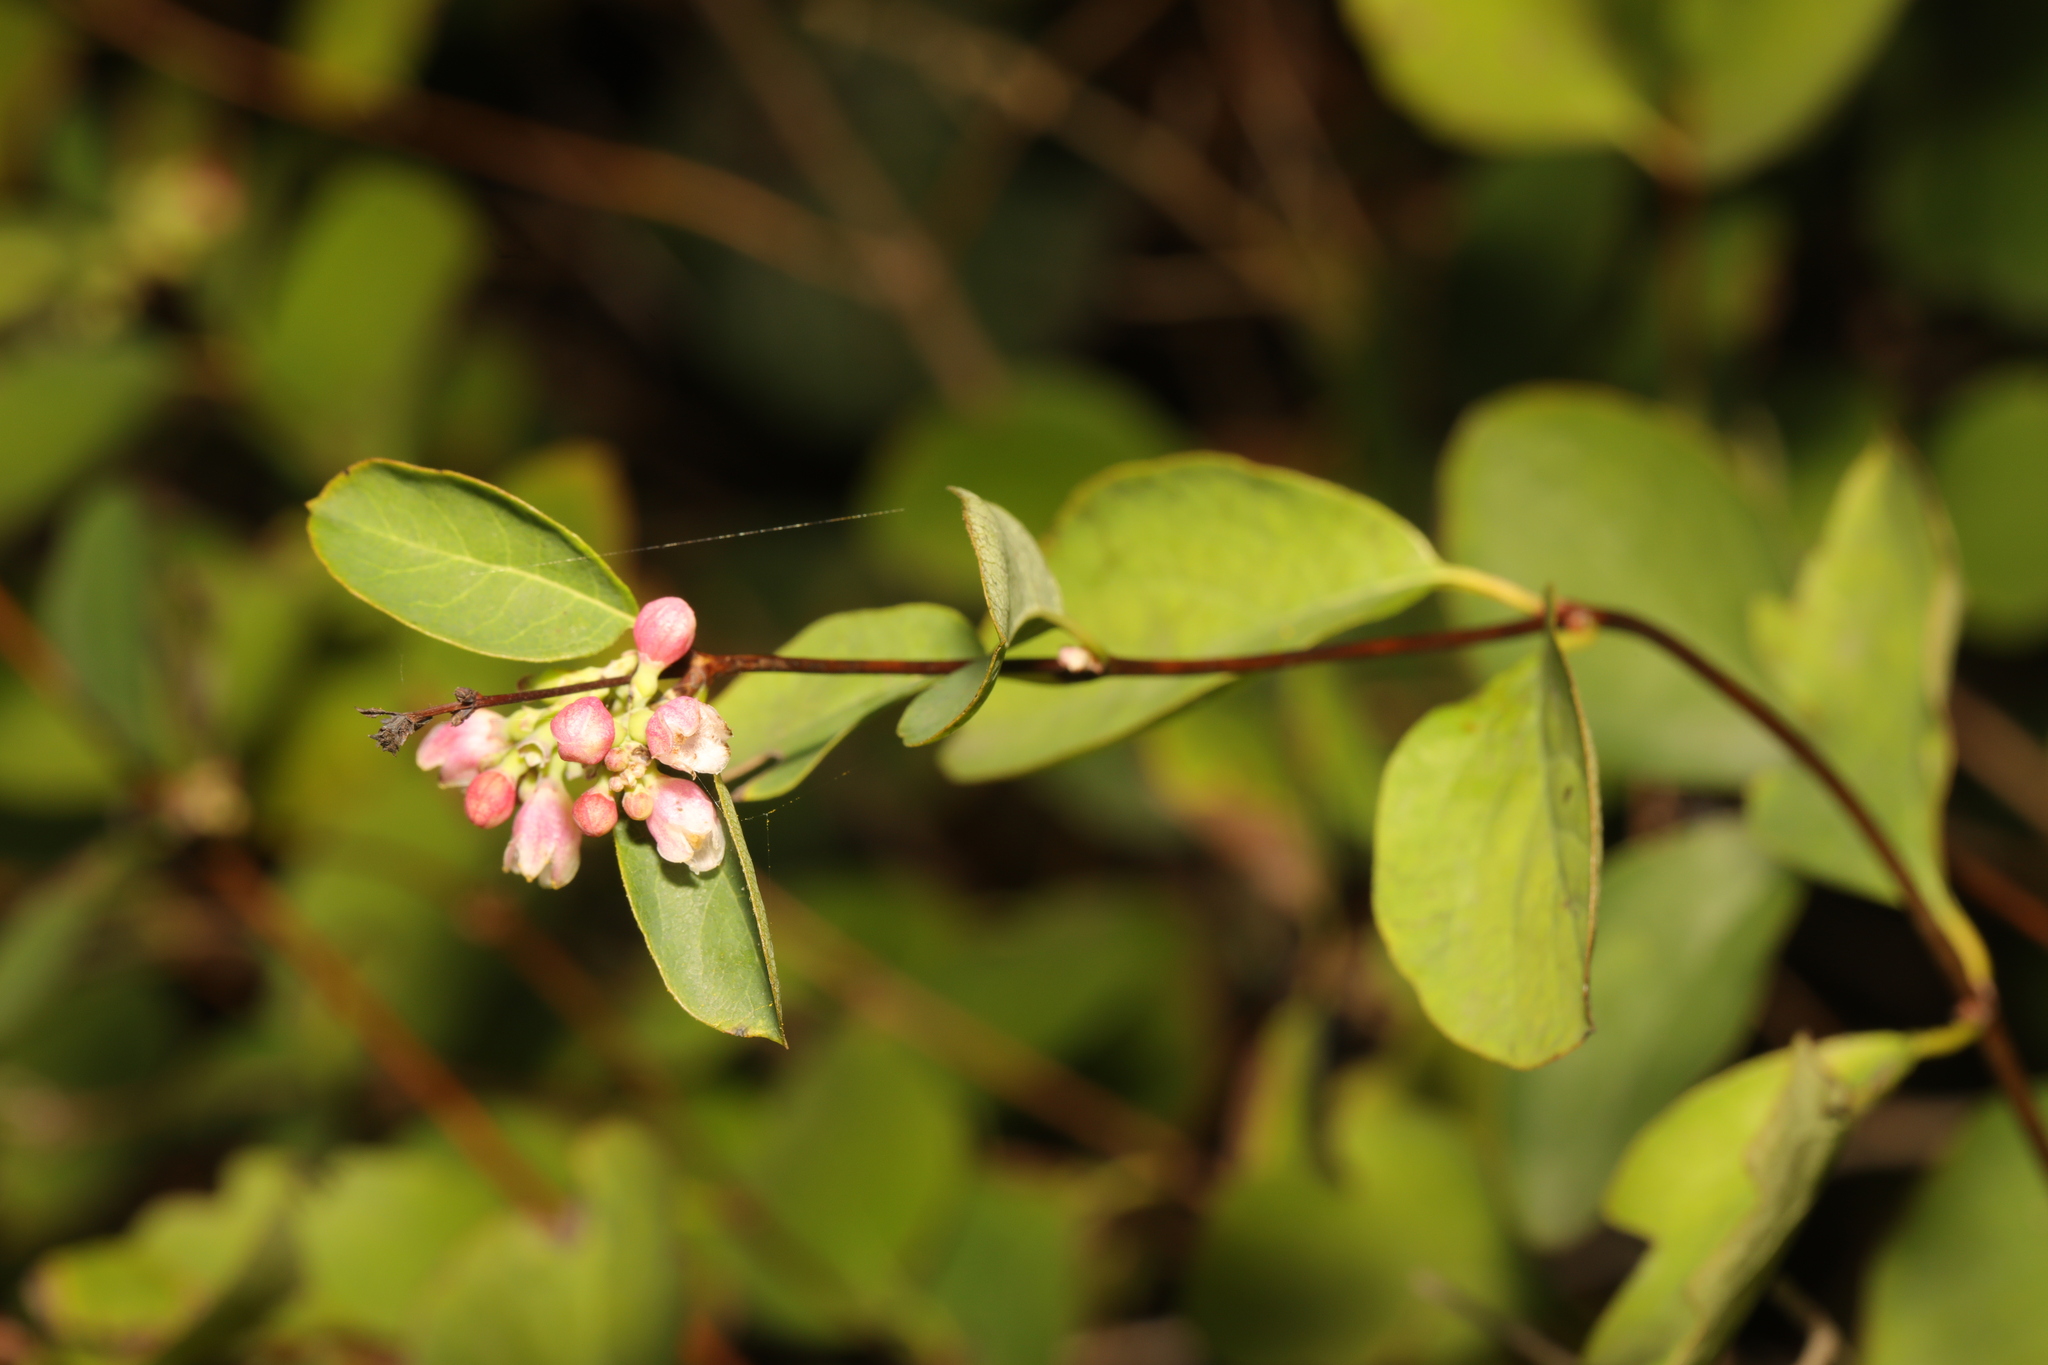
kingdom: Plantae
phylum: Tracheophyta
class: Magnoliopsida
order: Dipsacales
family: Caprifoliaceae
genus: Symphoricarpos
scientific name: Symphoricarpos albus
